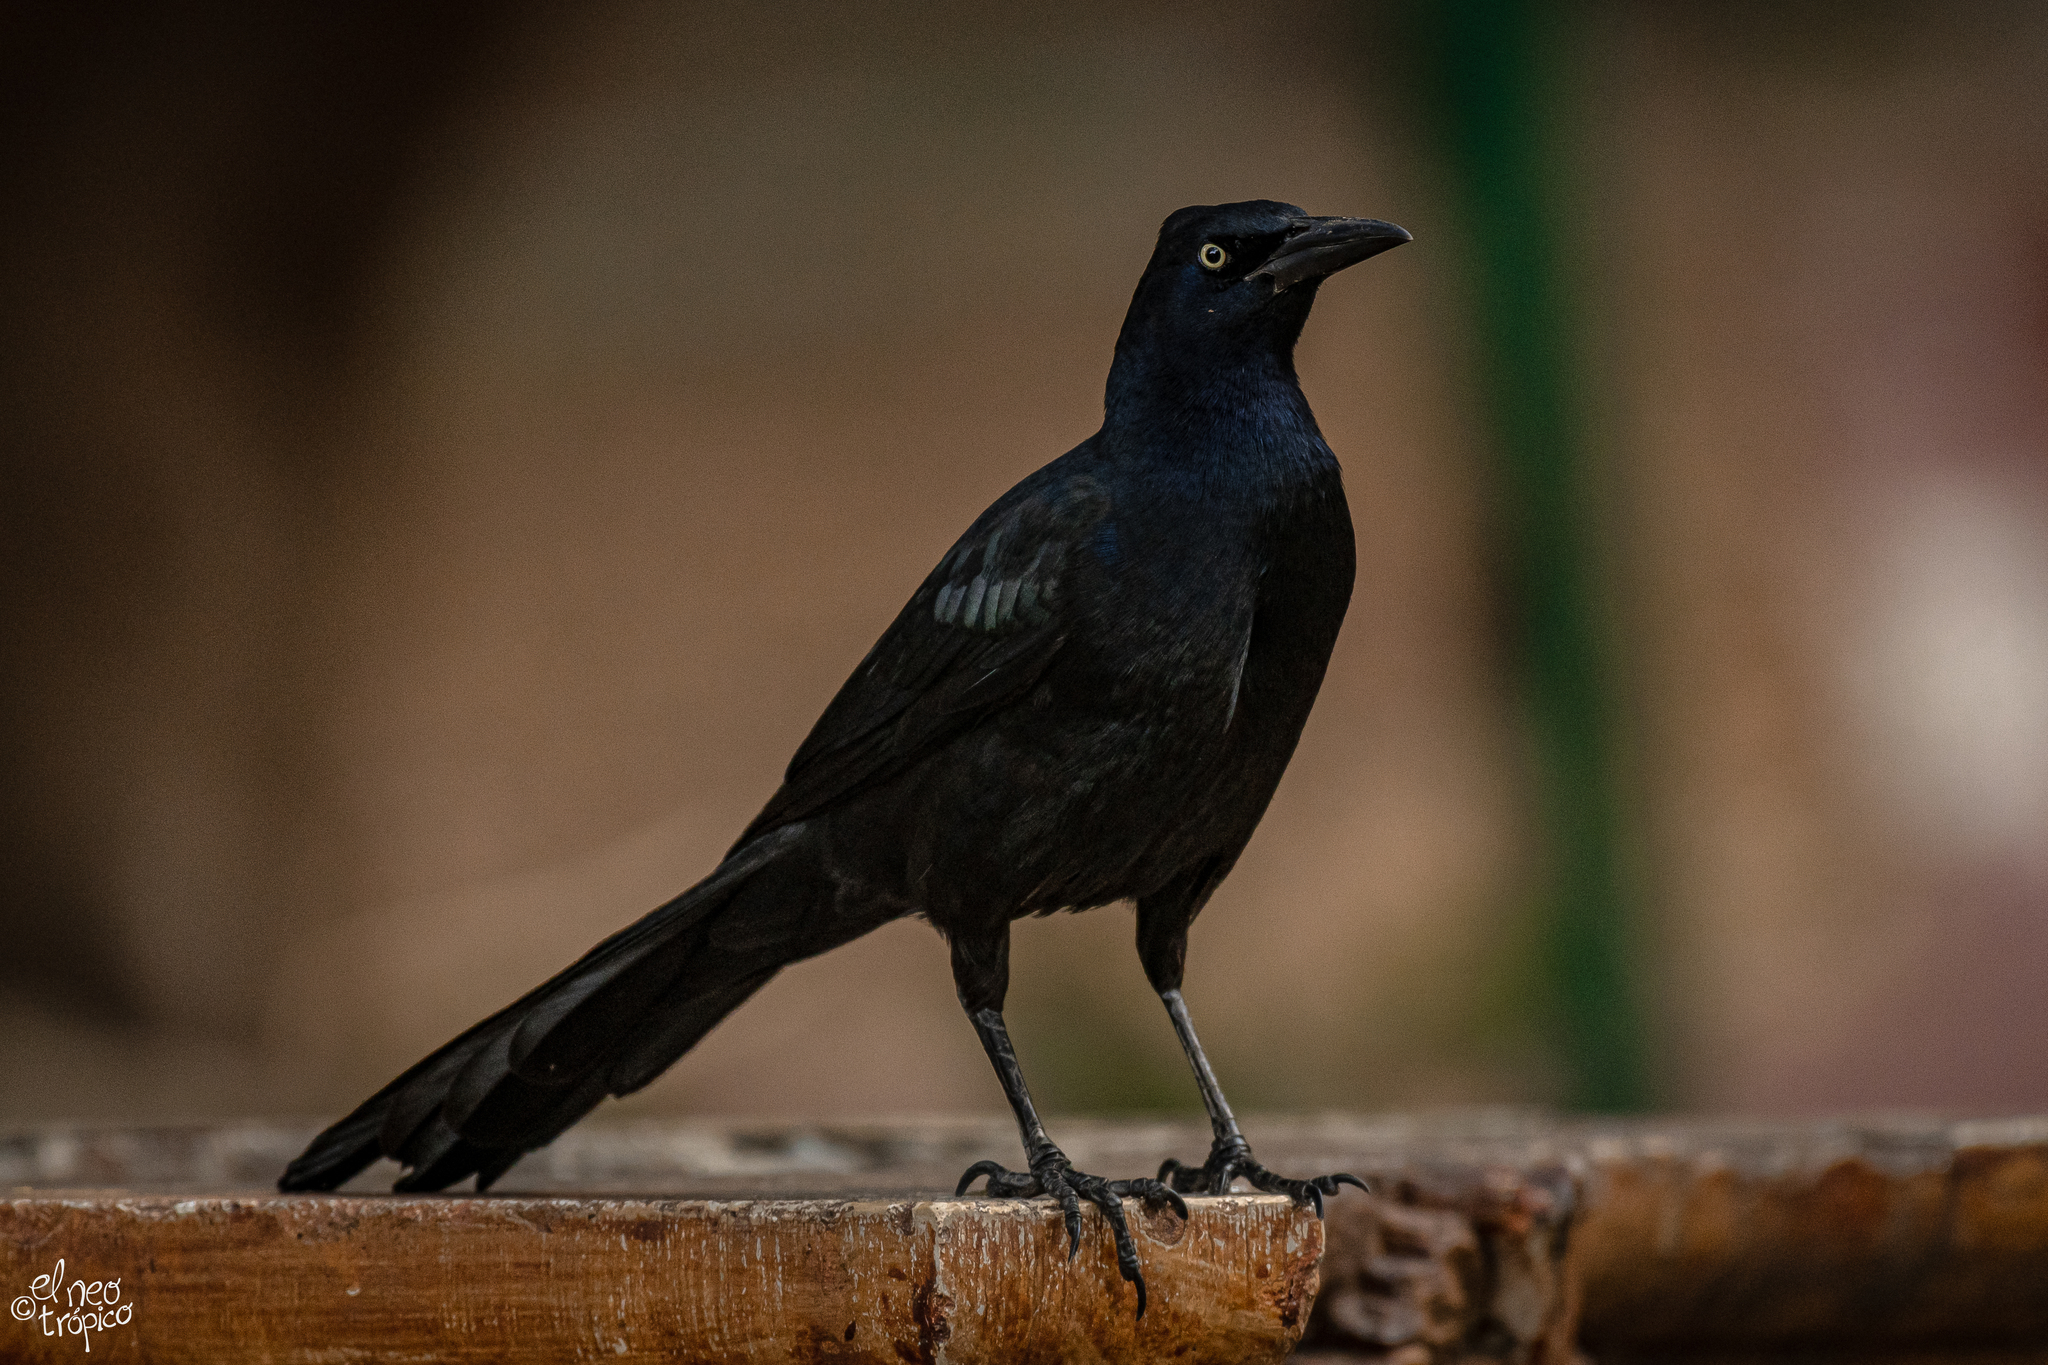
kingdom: Animalia
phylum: Chordata
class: Aves
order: Passeriformes
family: Icteridae
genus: Quiscalus
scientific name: Quiscalus mexicanus
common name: Great-tailed grackle
